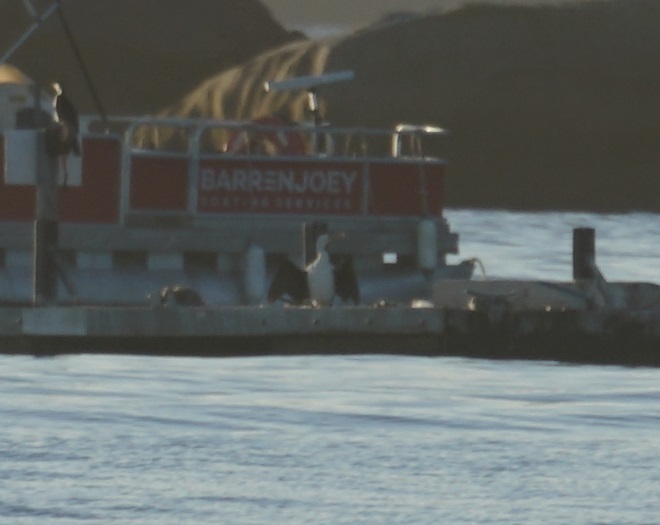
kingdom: Animalia
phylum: Chordata
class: Aves
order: Suliformes
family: Phalacrocoracidae
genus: Phalacrocorax
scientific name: Phalacrocorax varius
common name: Pied cormorant
